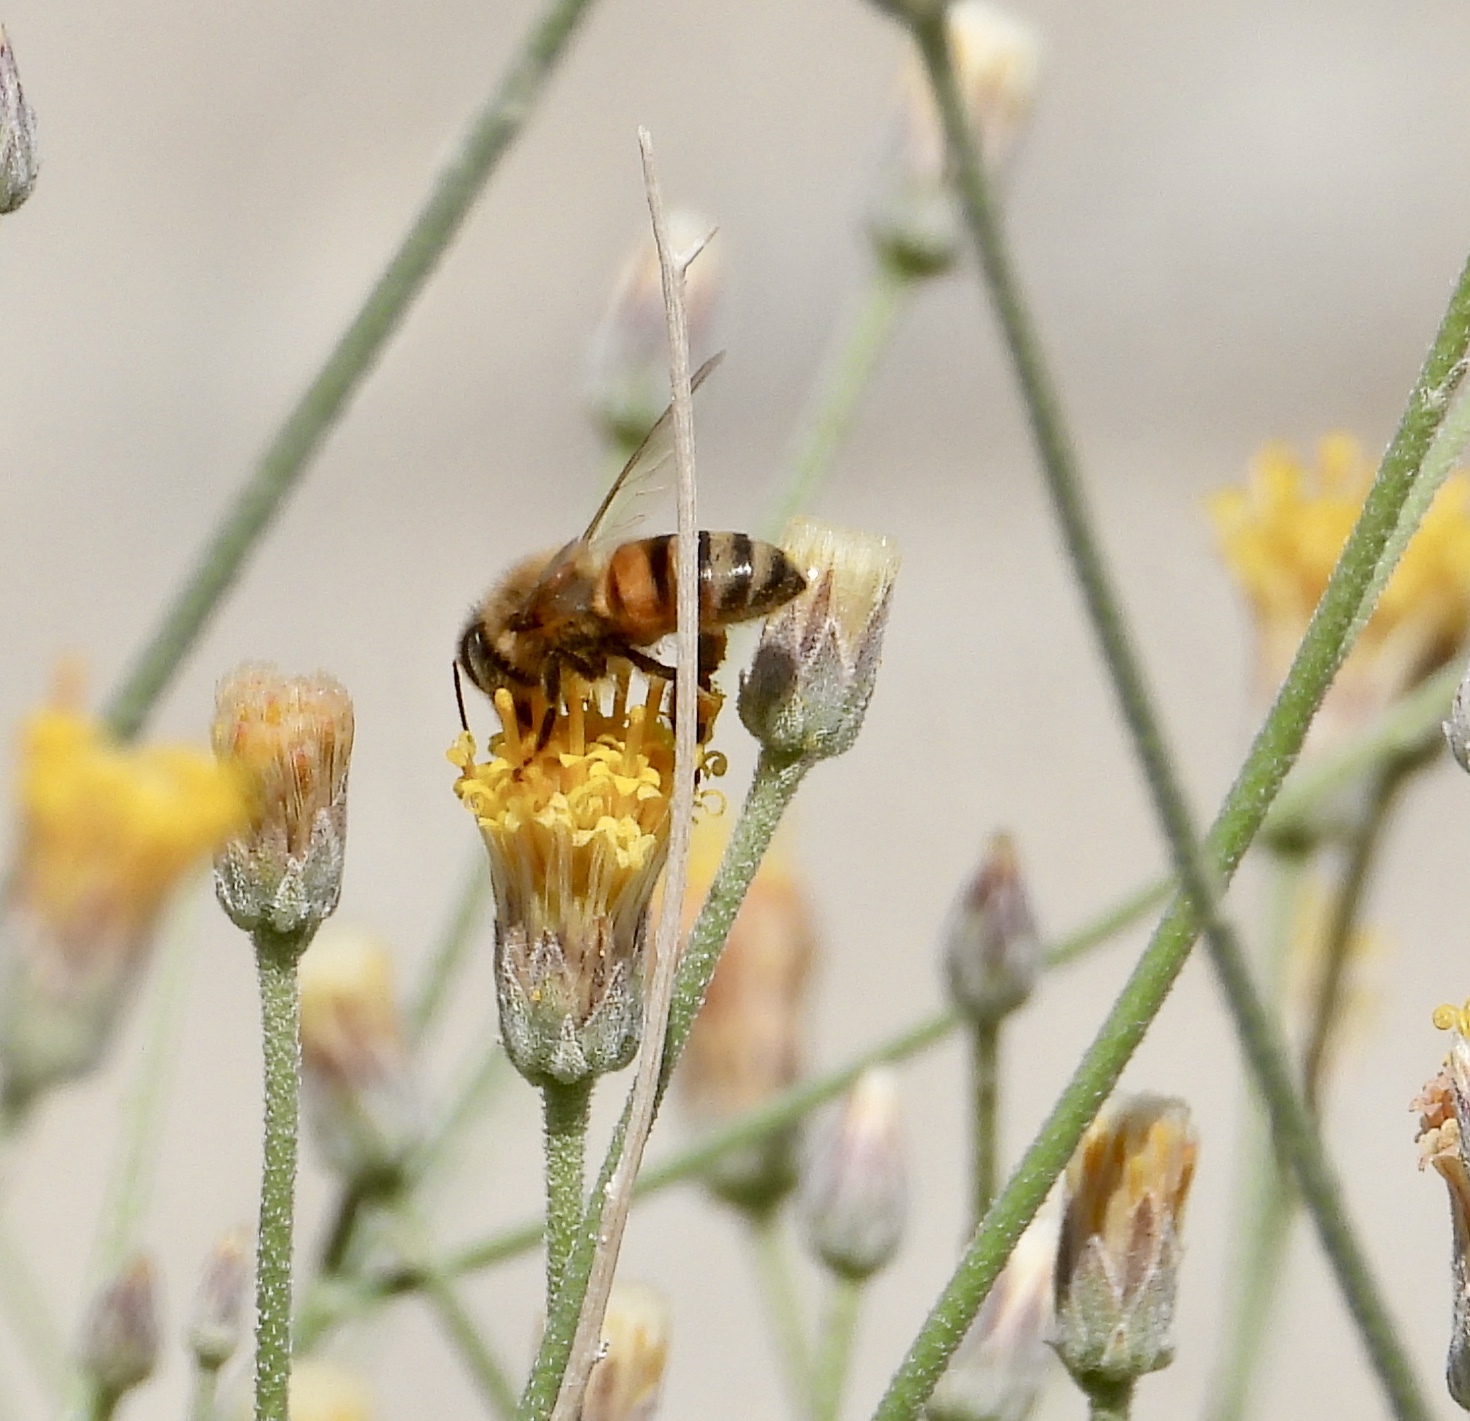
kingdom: Animalia
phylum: Arthropoda
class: Insecta
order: Hymenoptera
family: Apidae
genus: Apis
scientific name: Apis mellifera
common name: Honey bee
